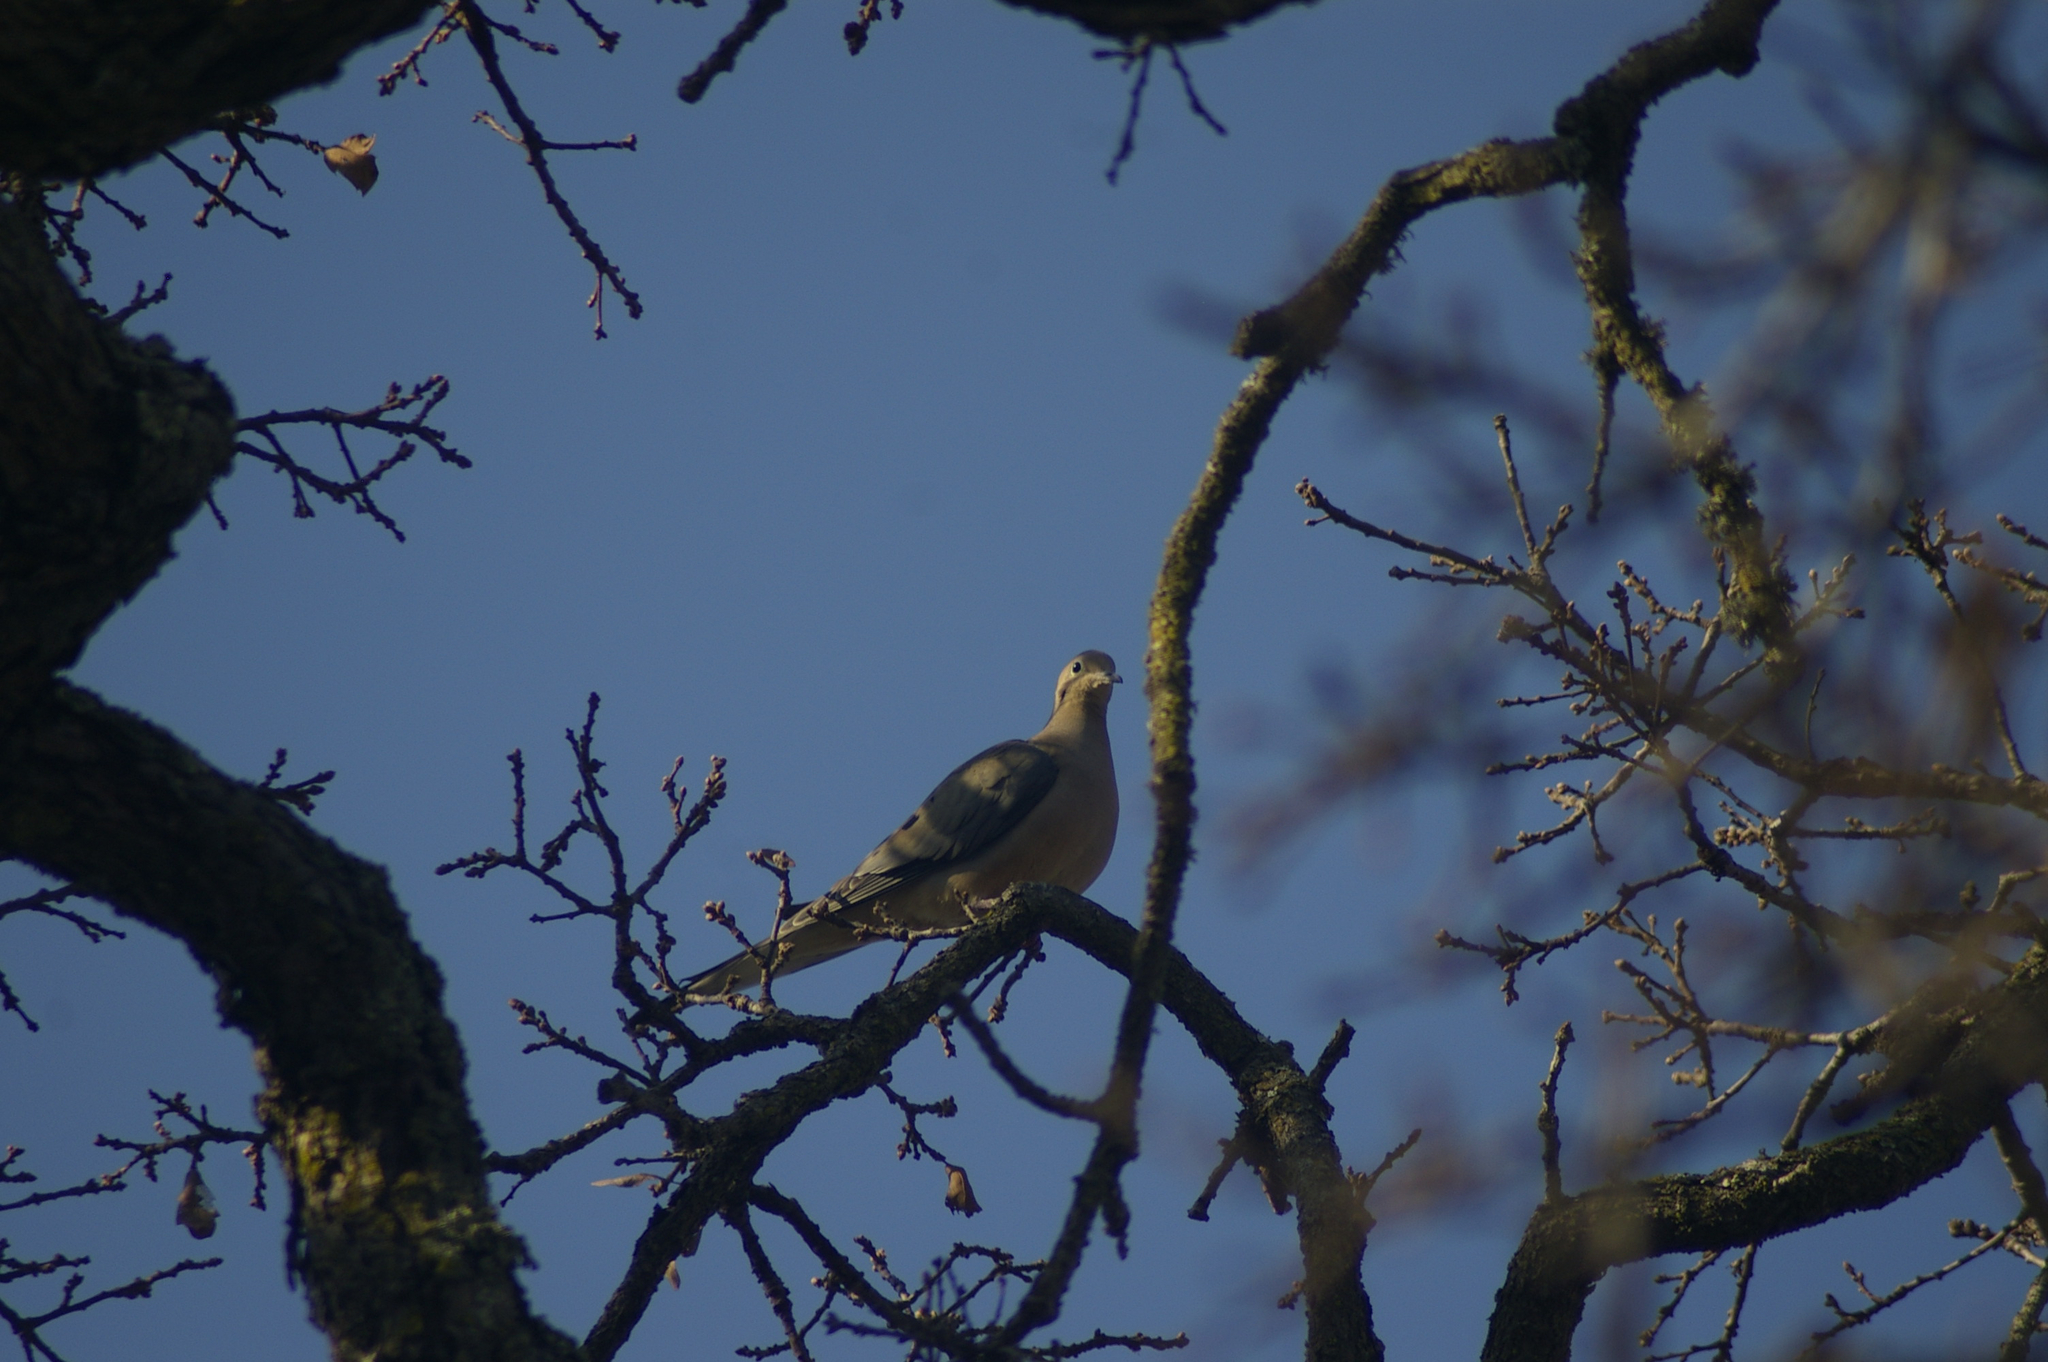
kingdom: Animalia
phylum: Chordata
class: Aves
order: Columbiformes
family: Columbidae
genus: Zenaida
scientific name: Zenaida macroura
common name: Mourning dove
